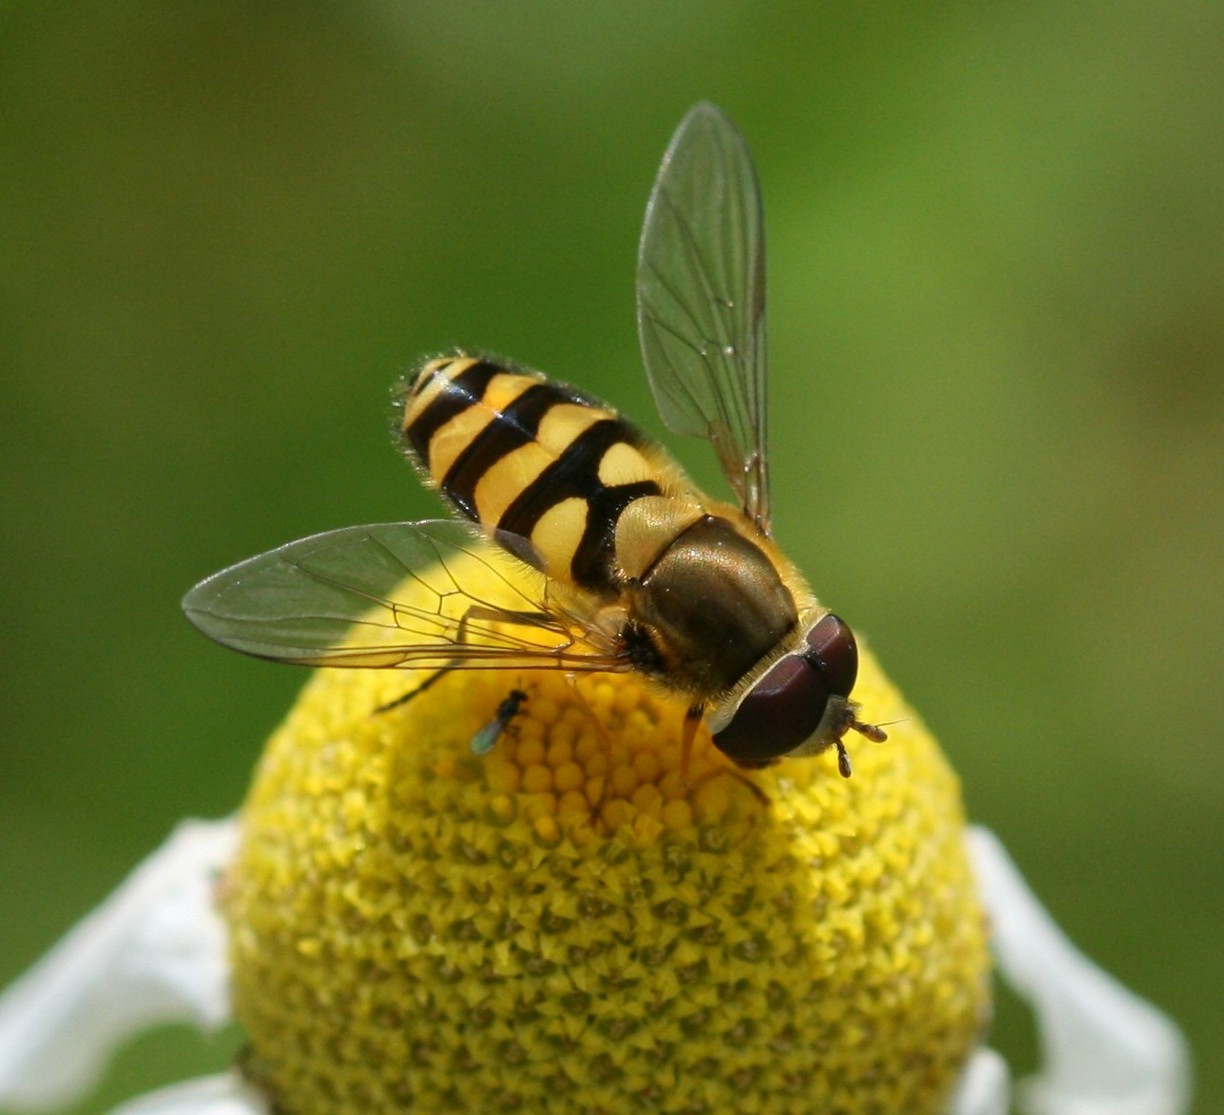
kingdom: Animalia
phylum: Arthropoda
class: Insecta
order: Diptera
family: Syrphidae
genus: Syrphus
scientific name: Syrphus
